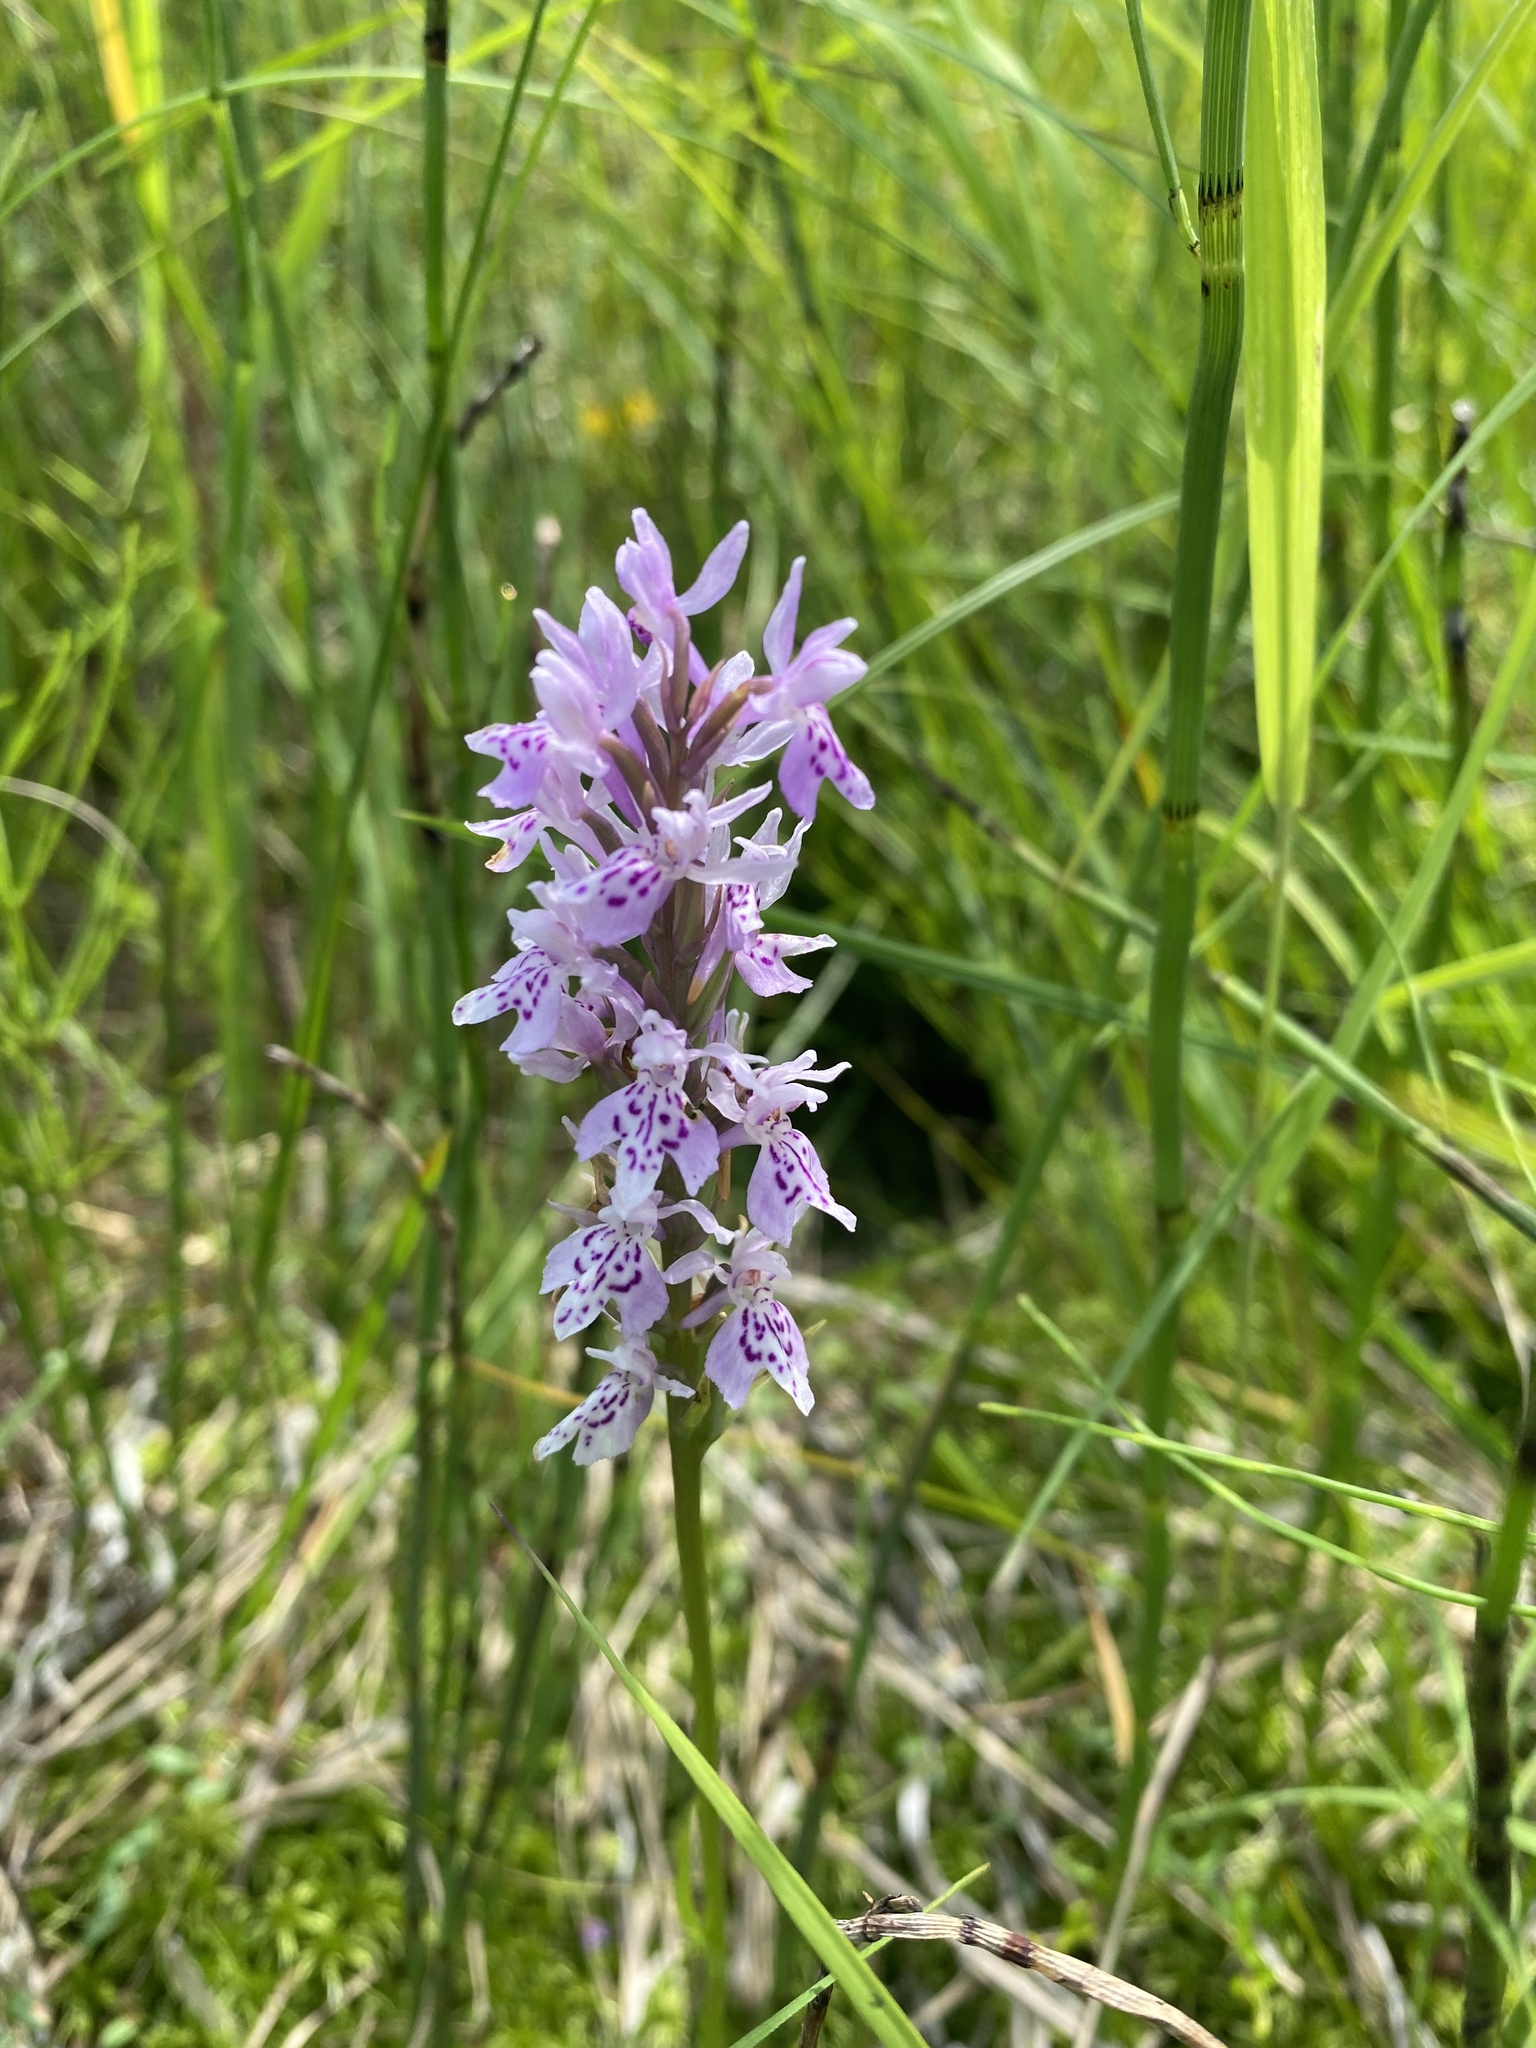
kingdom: Plantae
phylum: Tracheophyta
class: Liliopsida
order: Asparagales
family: Orchidaceae
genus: Dactylorhiza
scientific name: Dactylorhiza maculata
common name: Heath spotted-orchid
